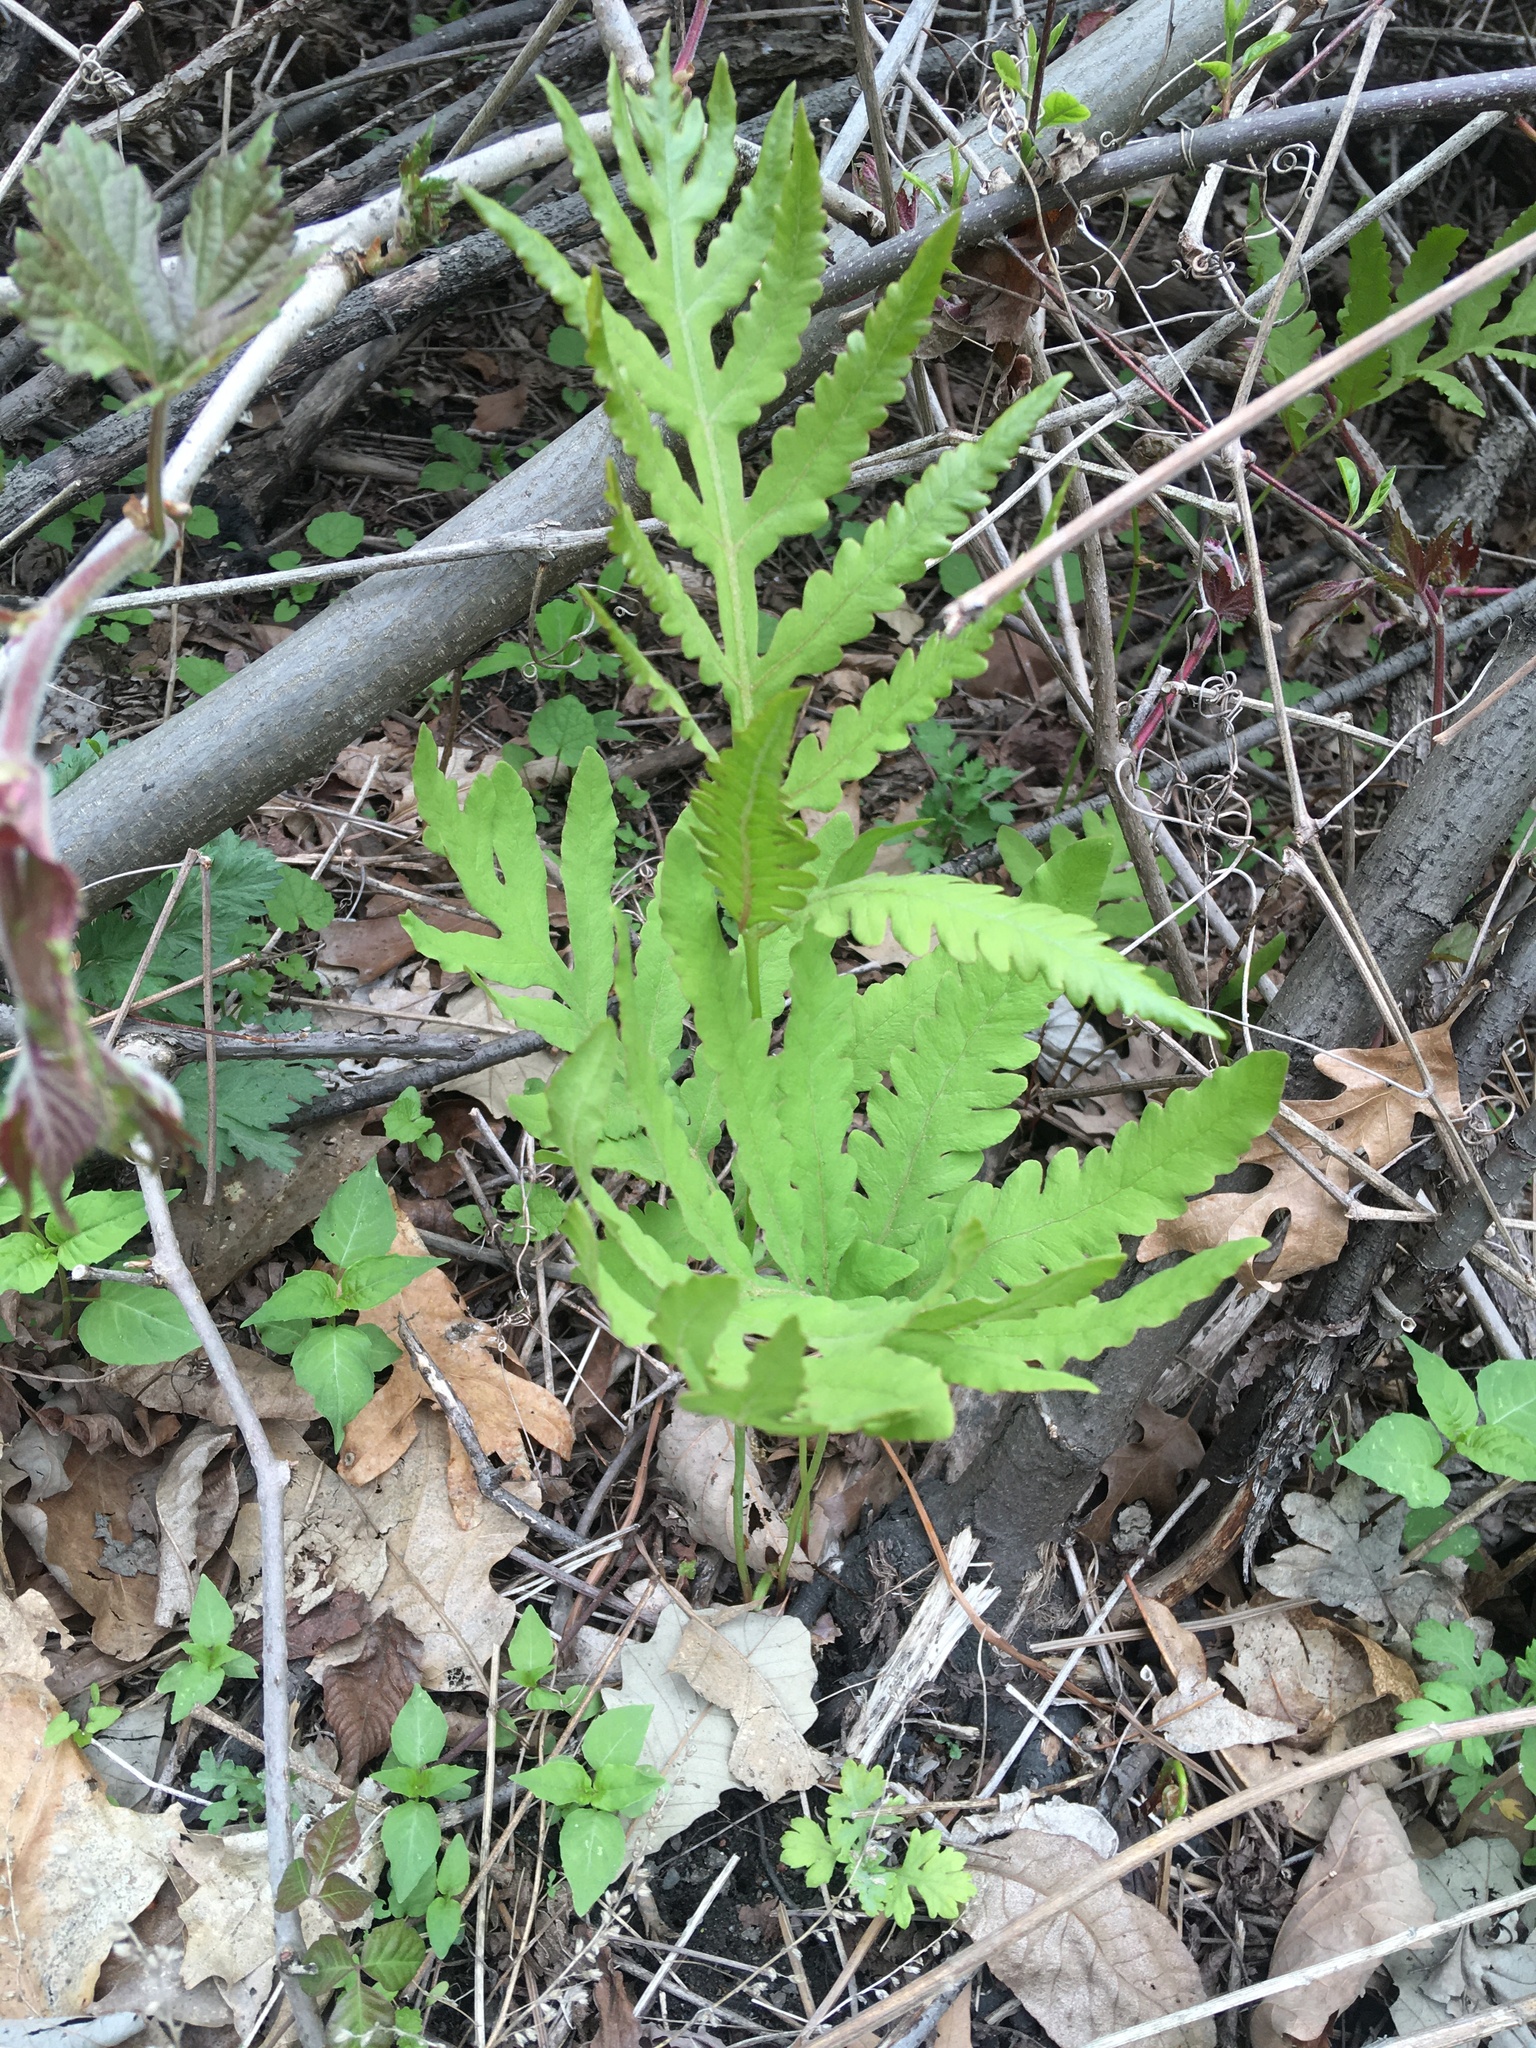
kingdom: Plantae
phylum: Tracheophyta
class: Polypodiopsida
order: Polypodiales
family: Onocleaceae
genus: Onoclea
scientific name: Onoclea sensibilis
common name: Sensitive fern
